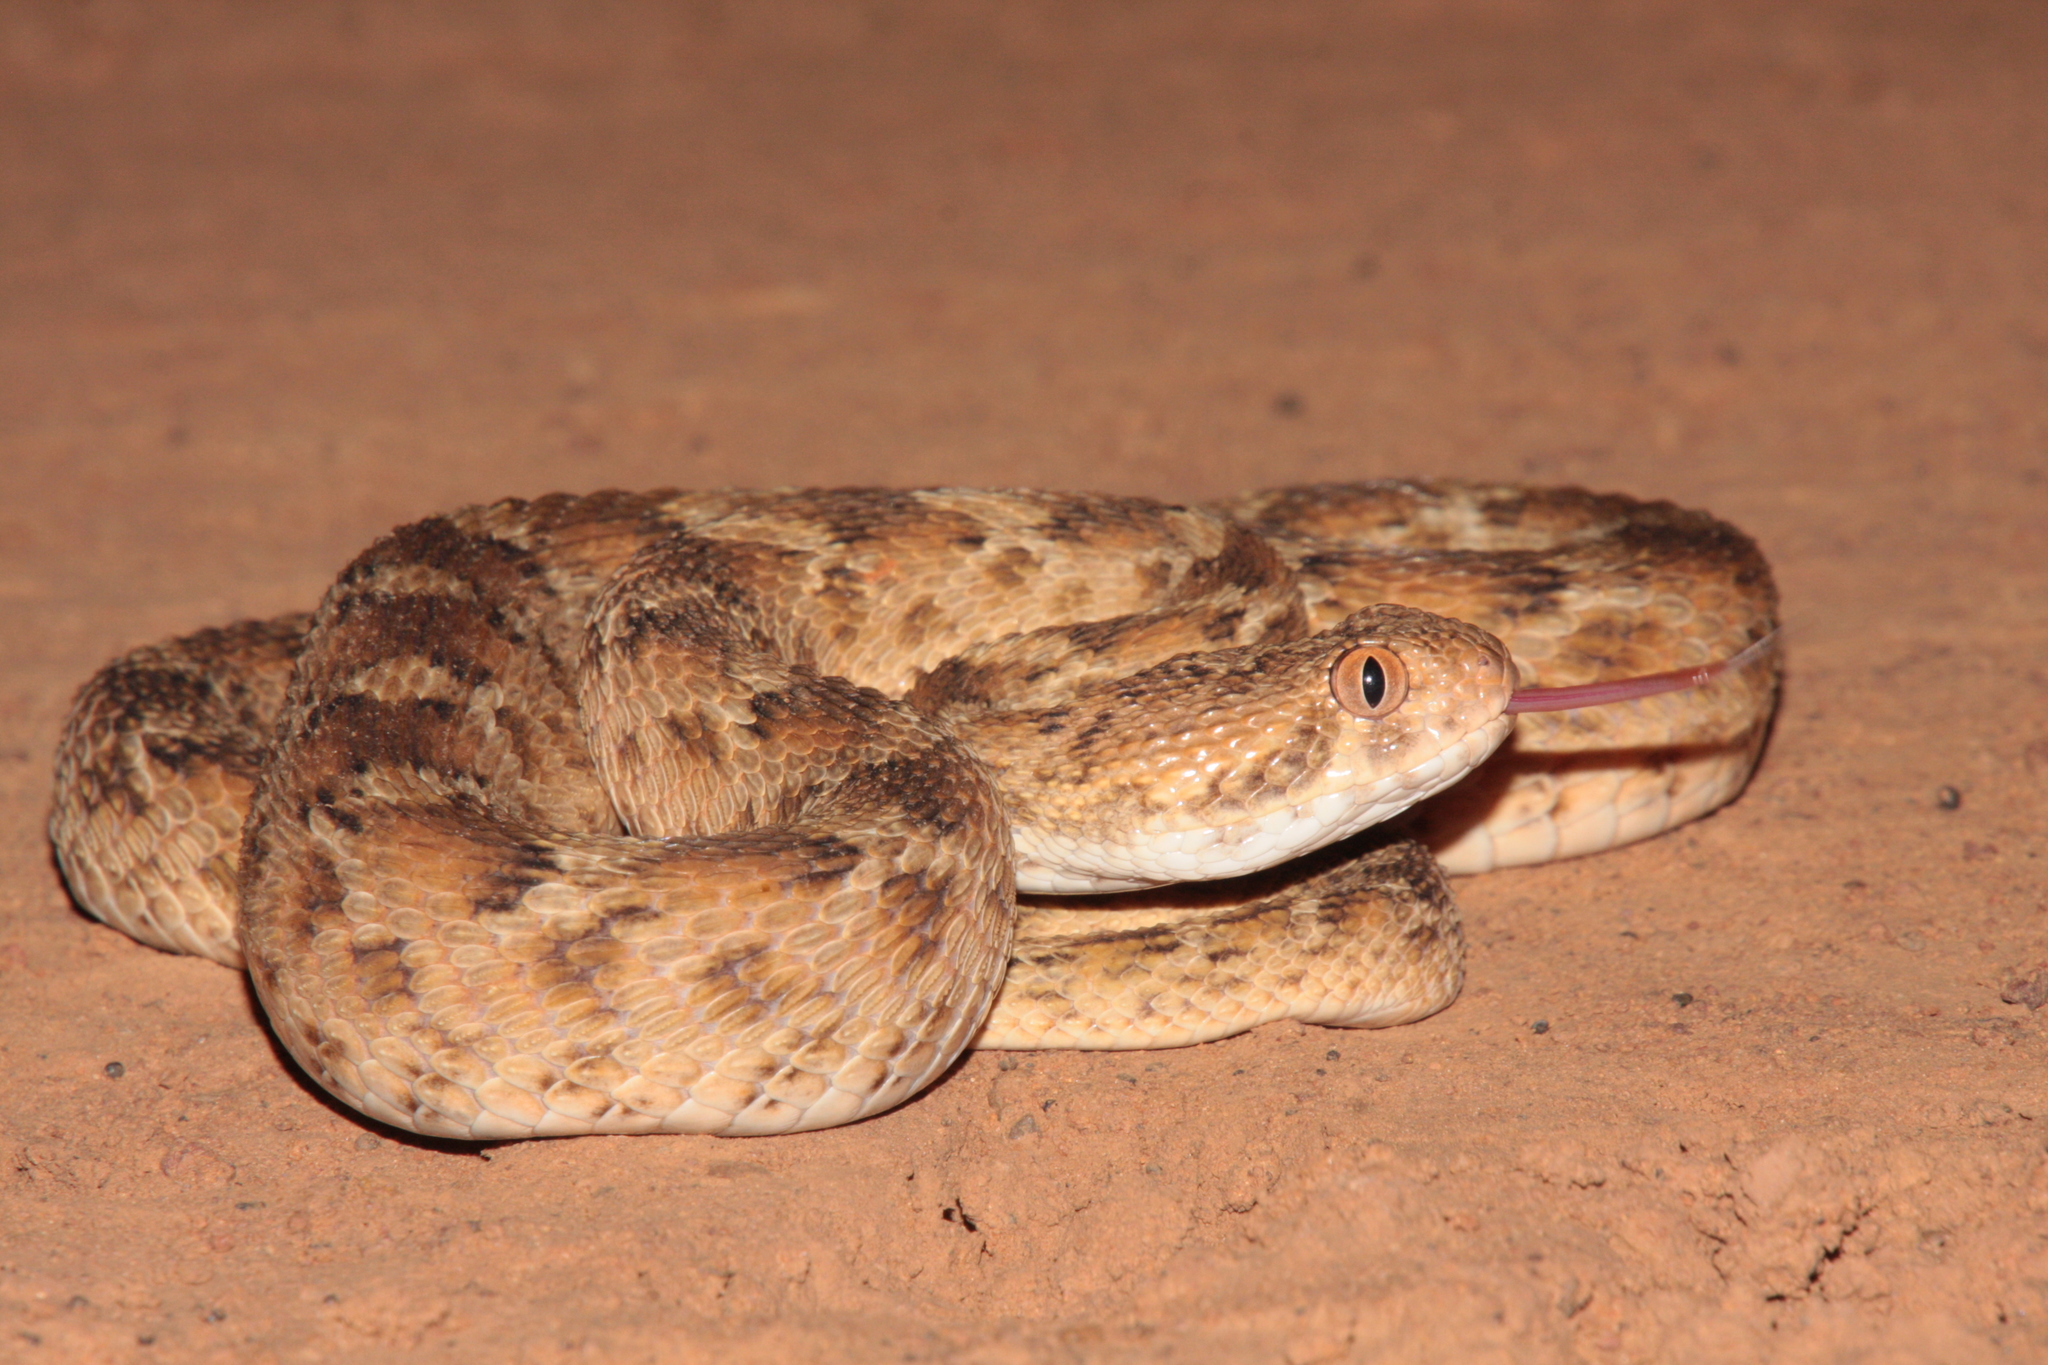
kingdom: Animalia
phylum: Chordata
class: Squamata
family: Viperidae
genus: Echis
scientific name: Echis leucogaster
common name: White-bellied carpet viper
